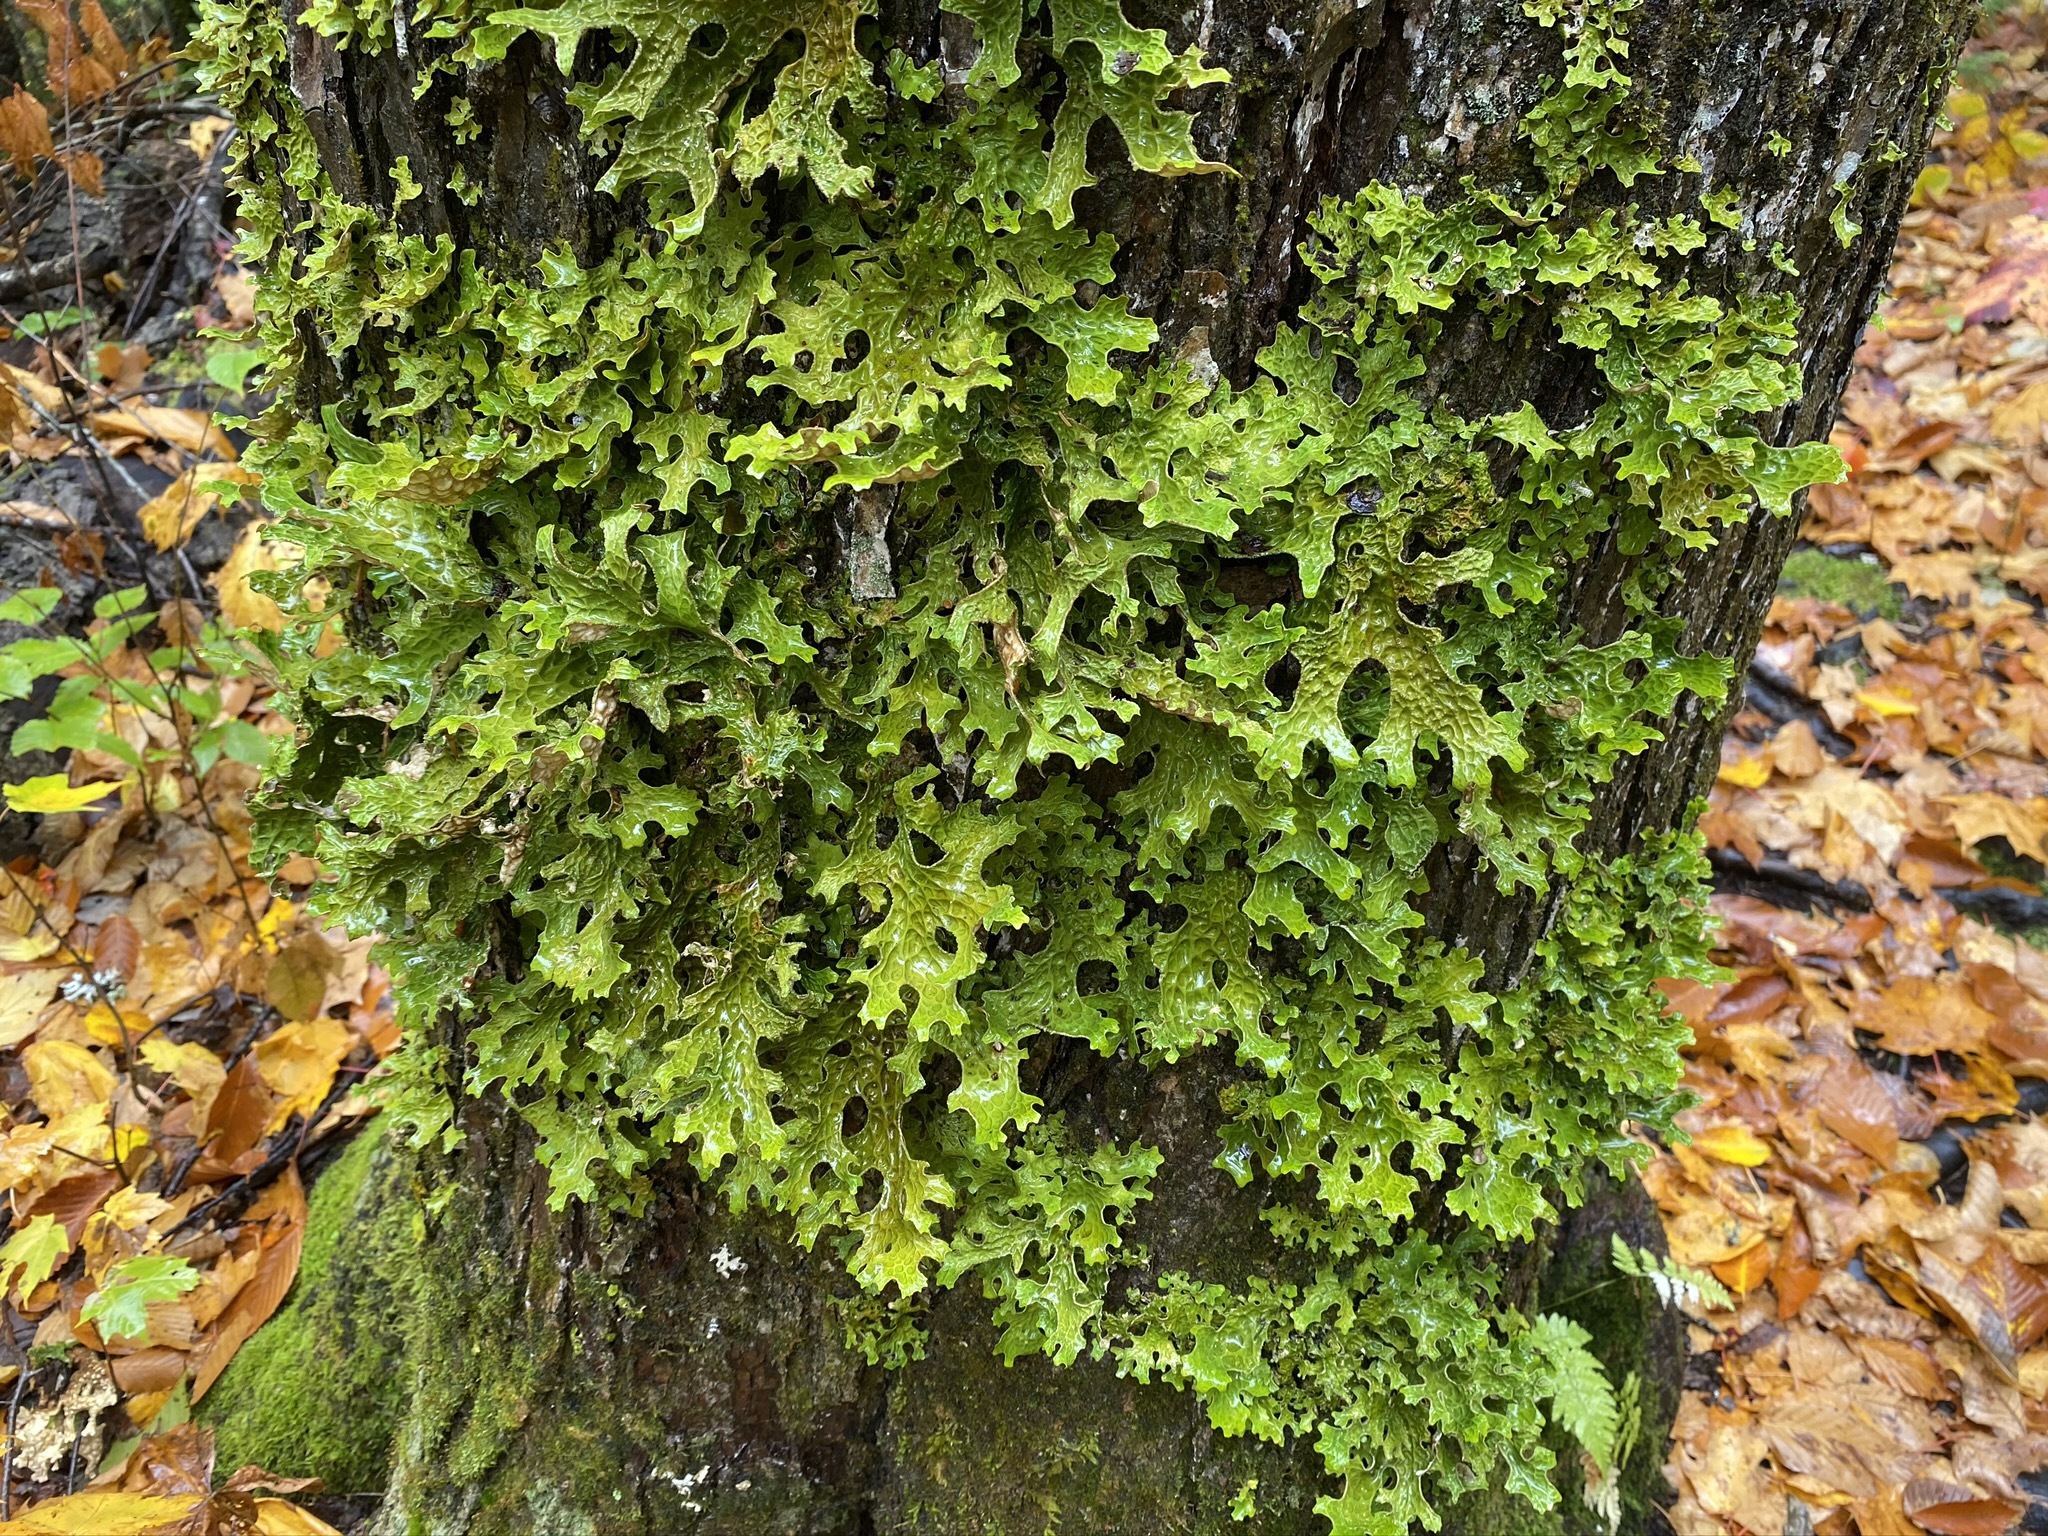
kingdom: Fungi
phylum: Ascomycota
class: Lecanoromycetes
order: Peltigerales
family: Lobariaceae
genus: Lobaria
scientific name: Lobaria pulmonaria
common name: Lungwort
